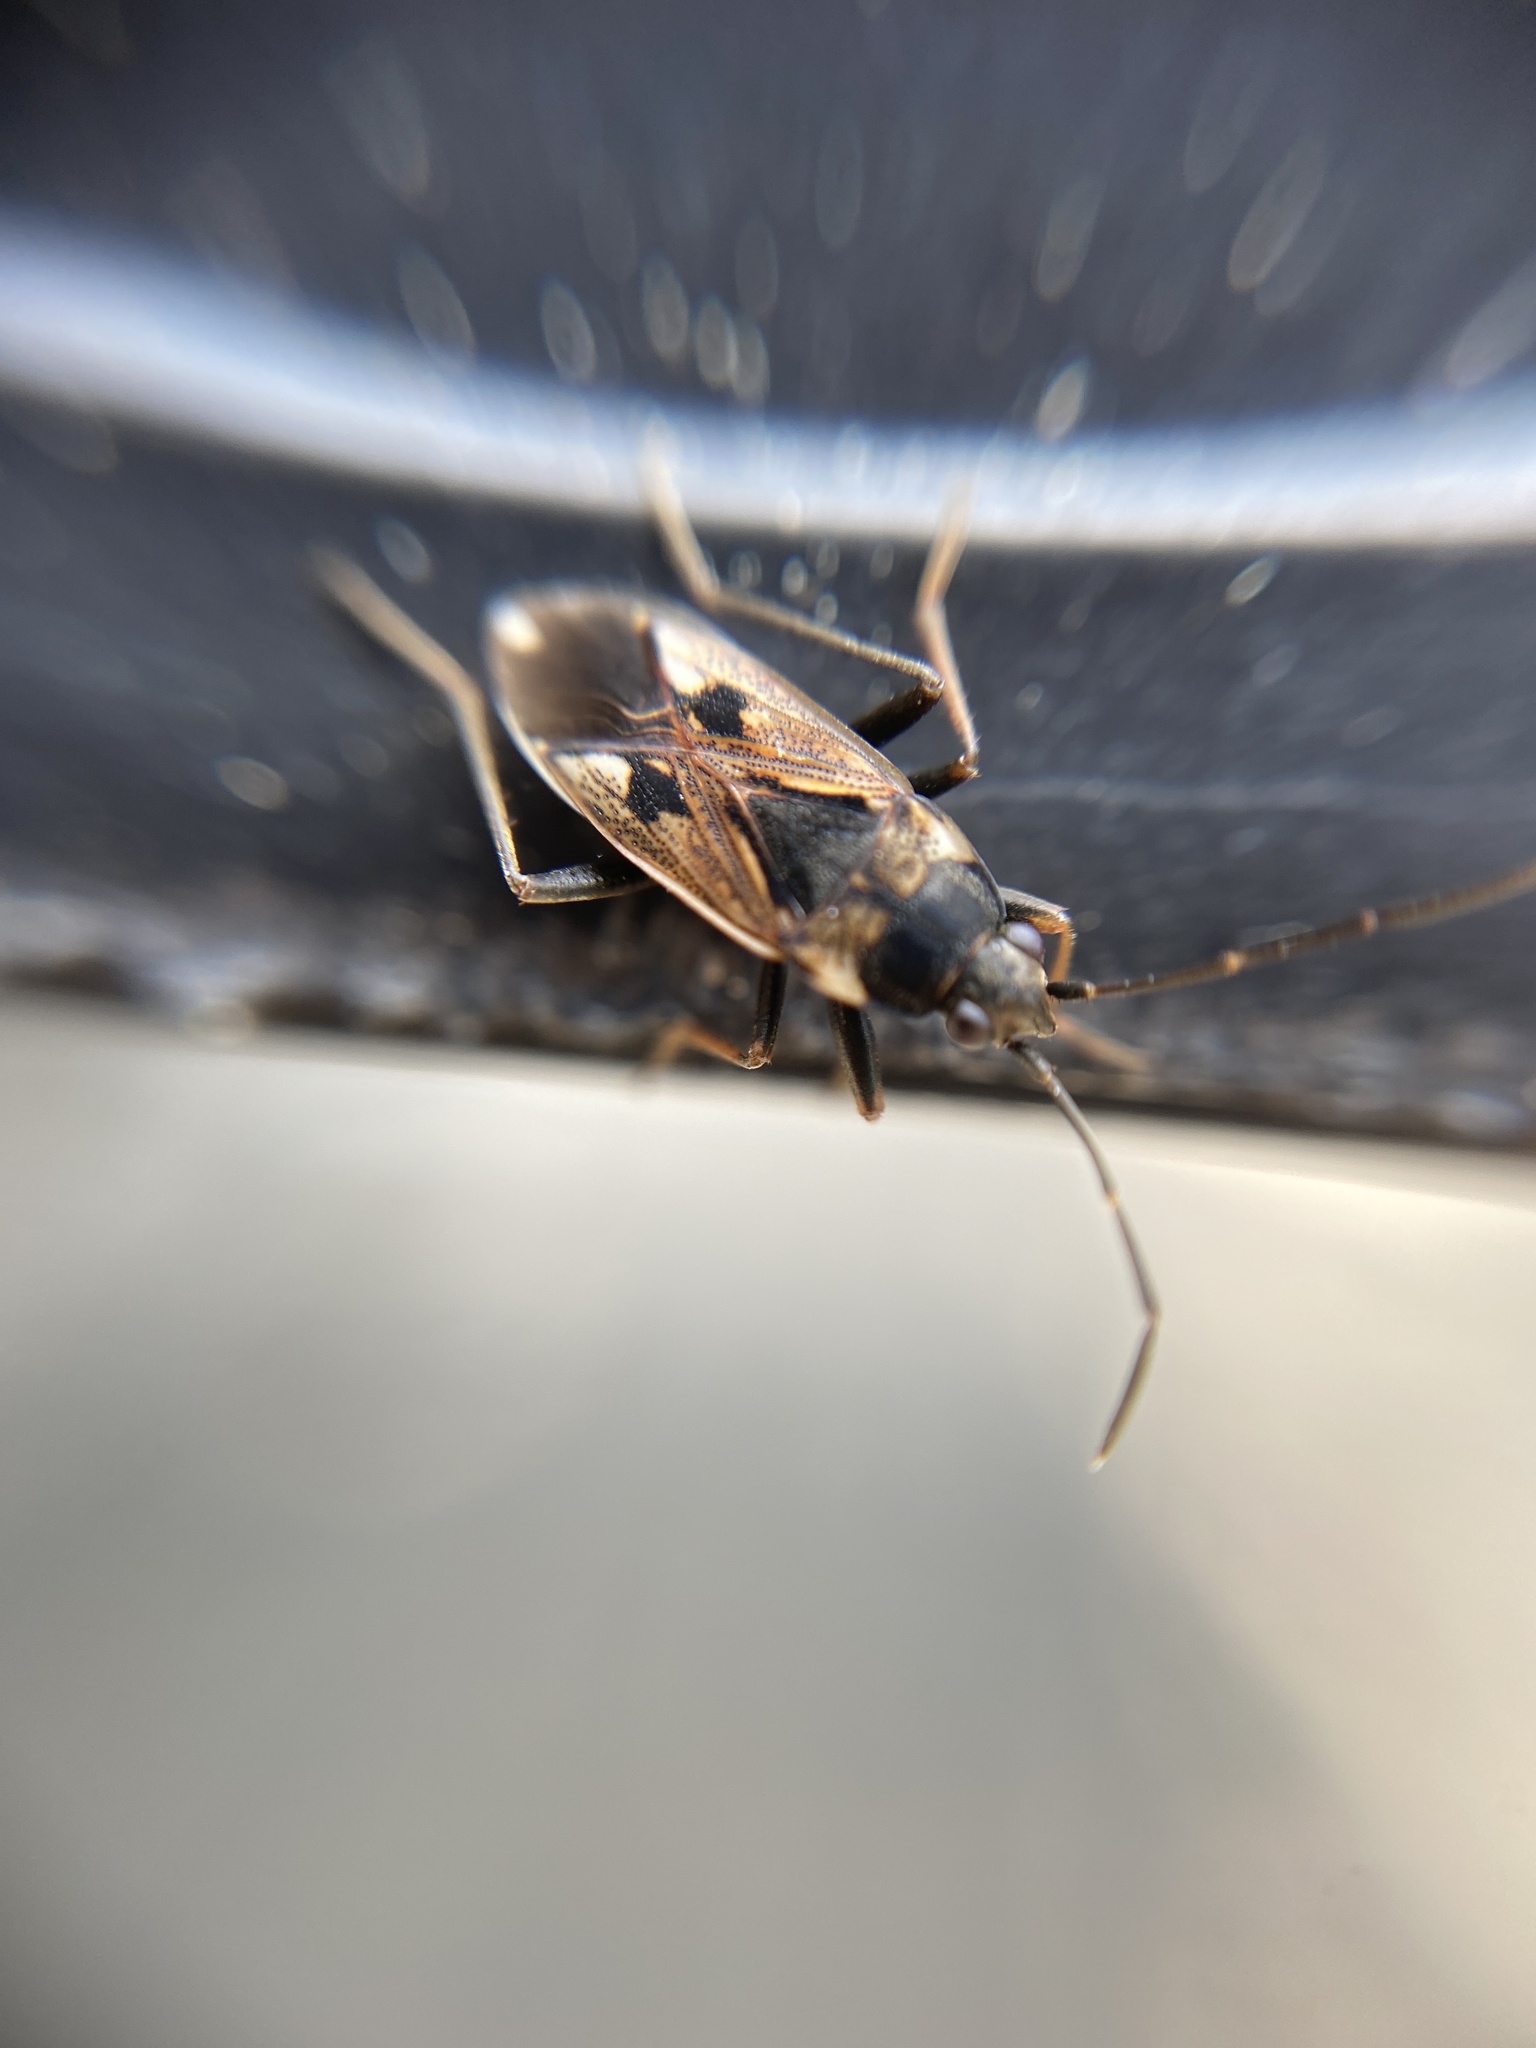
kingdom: Animalia
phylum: Arthropoda
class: Insecta
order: Hemiptera
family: Rhyparochromidae
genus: Rhyparochromus
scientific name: Rhyparochromus vulgaris
